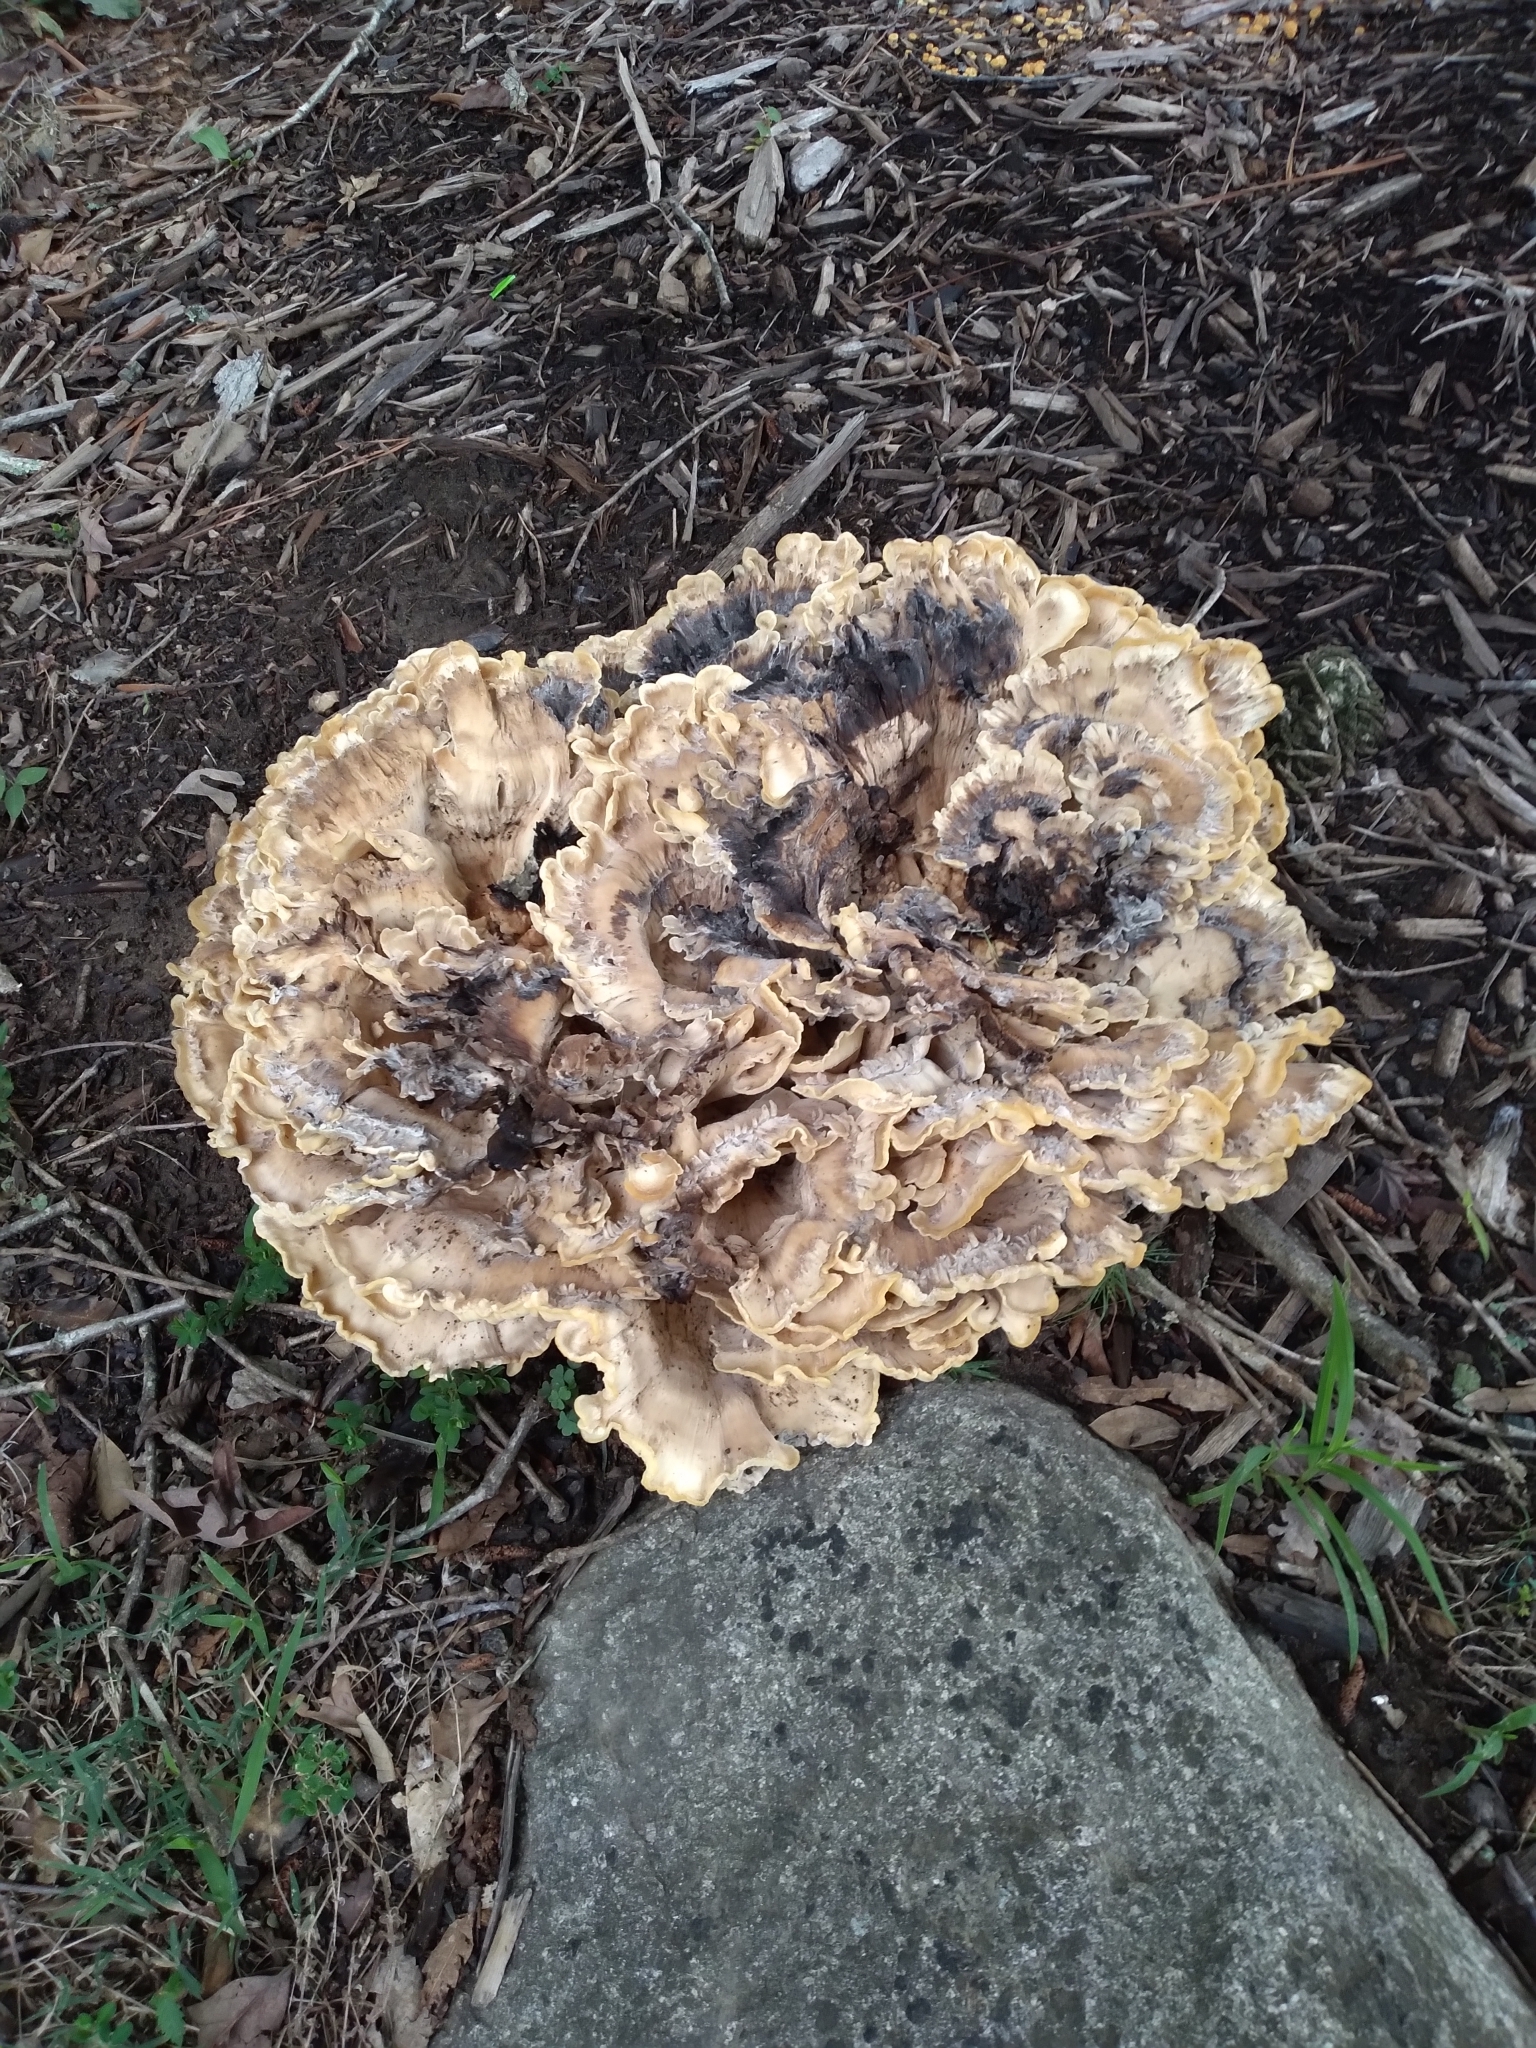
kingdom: Fungi
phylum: Basidiomycota
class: Agaricomycetes
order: Polyporales
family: Meripilaceae
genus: Meripilus
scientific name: Meripilus sumstinei
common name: Black-staining polypore
